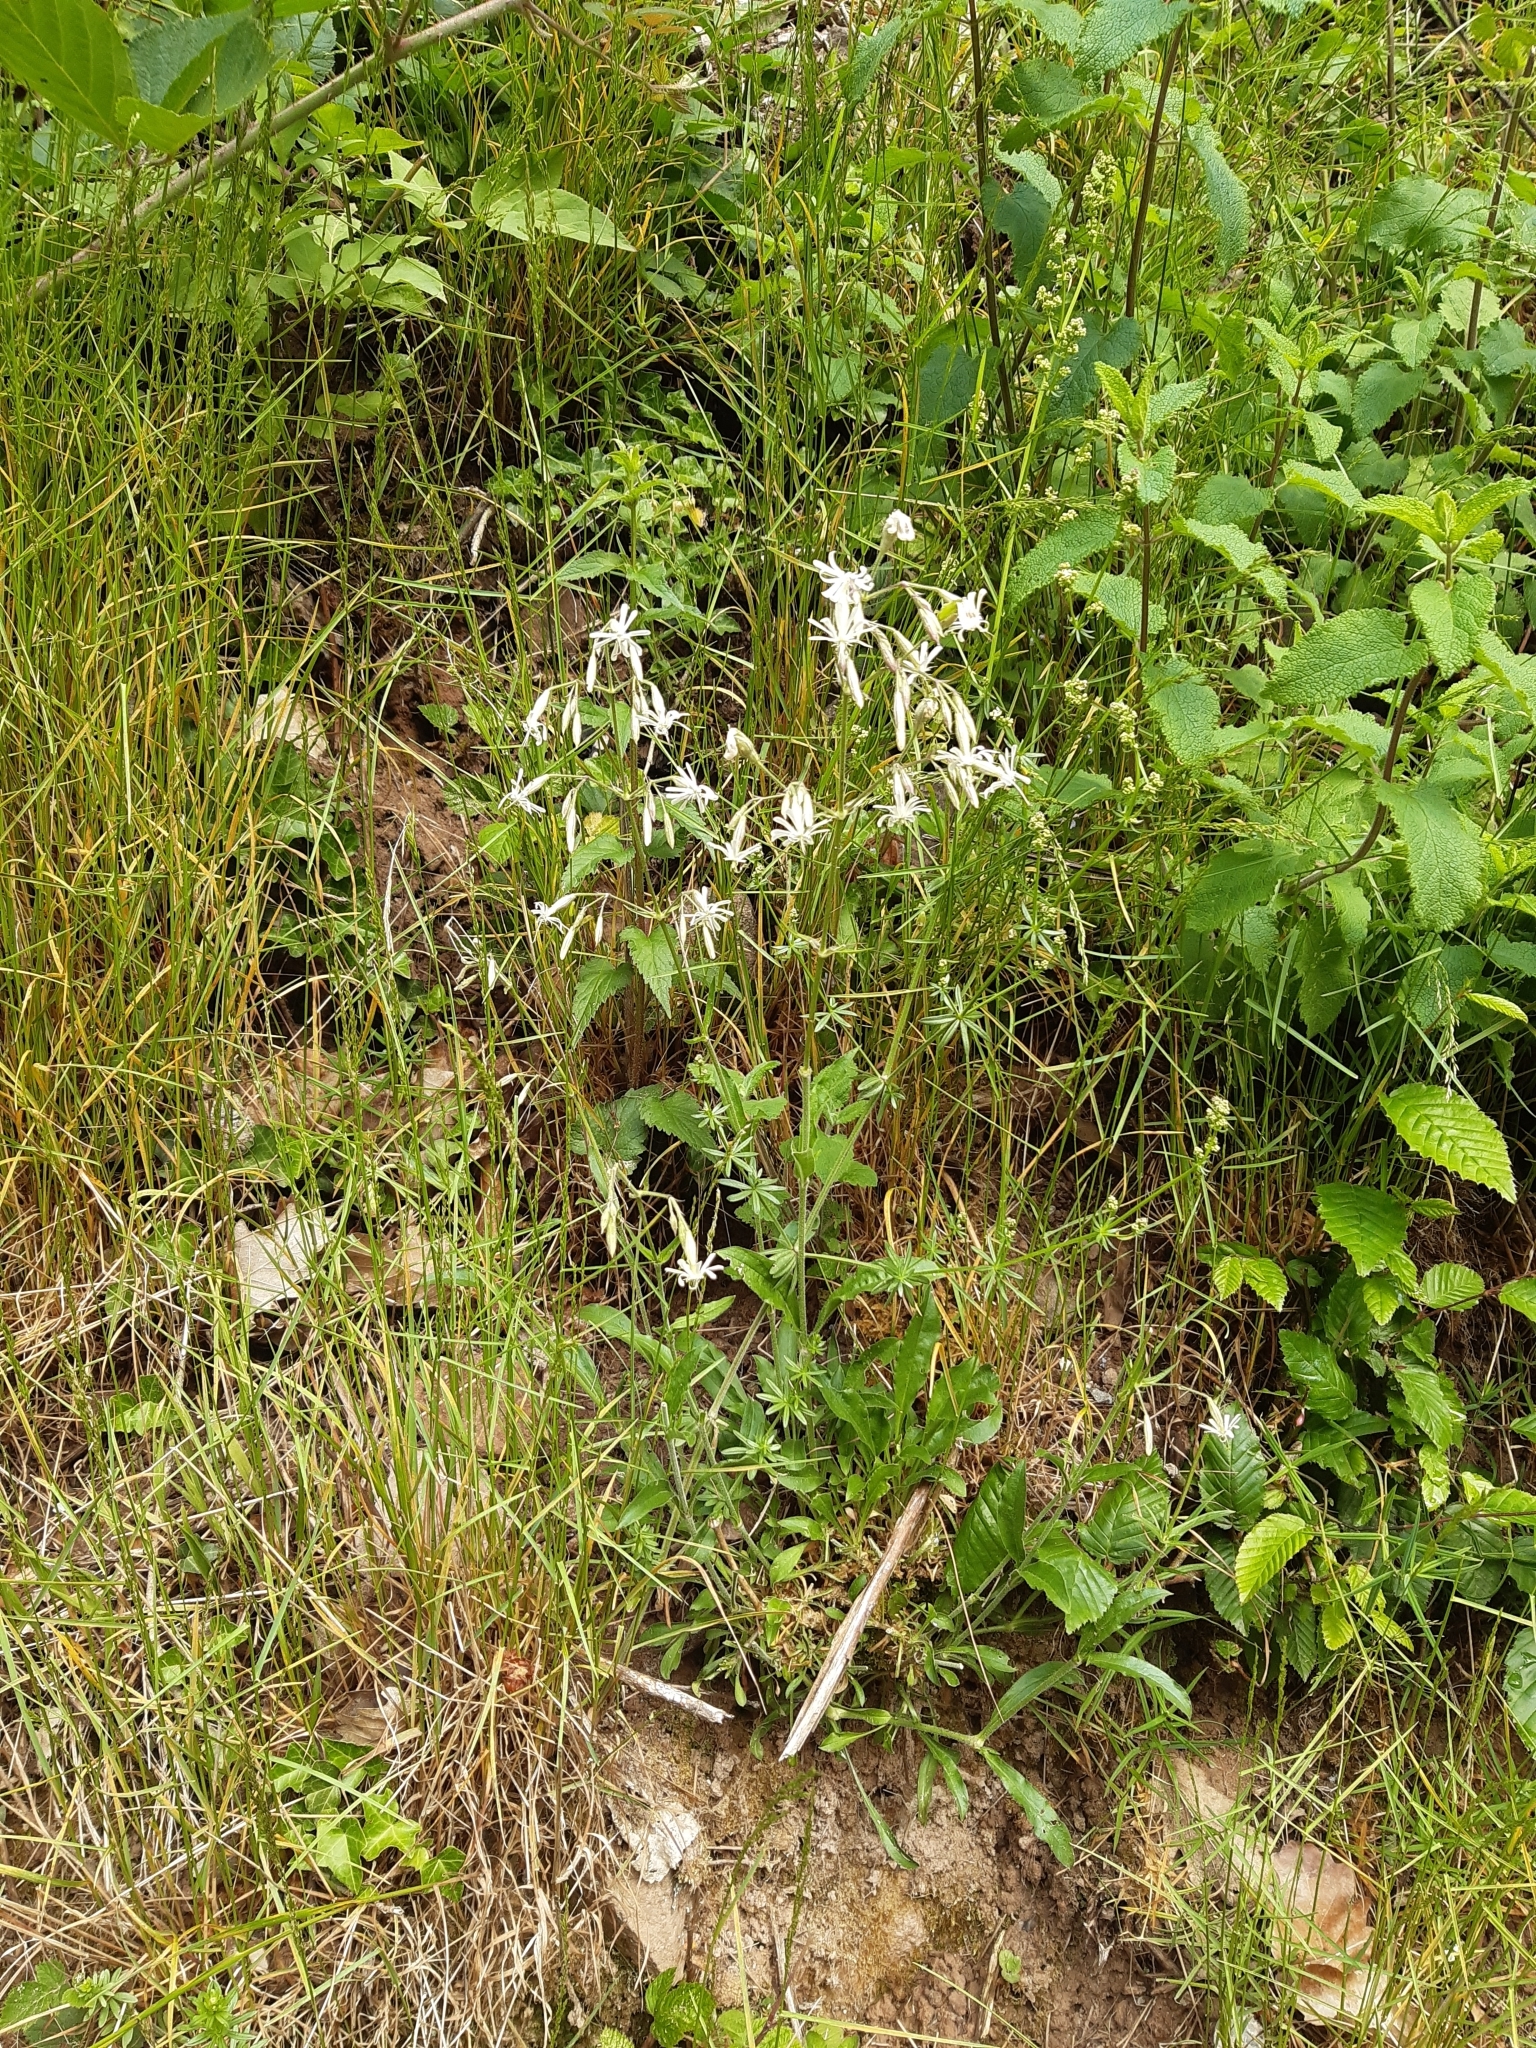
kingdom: Plantae
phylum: Tracheophyta
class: Magnoliopsida
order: Caryophyllales
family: Caryophyllaceae
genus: Silene
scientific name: Silene nutans
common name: Nottingham catchfly
